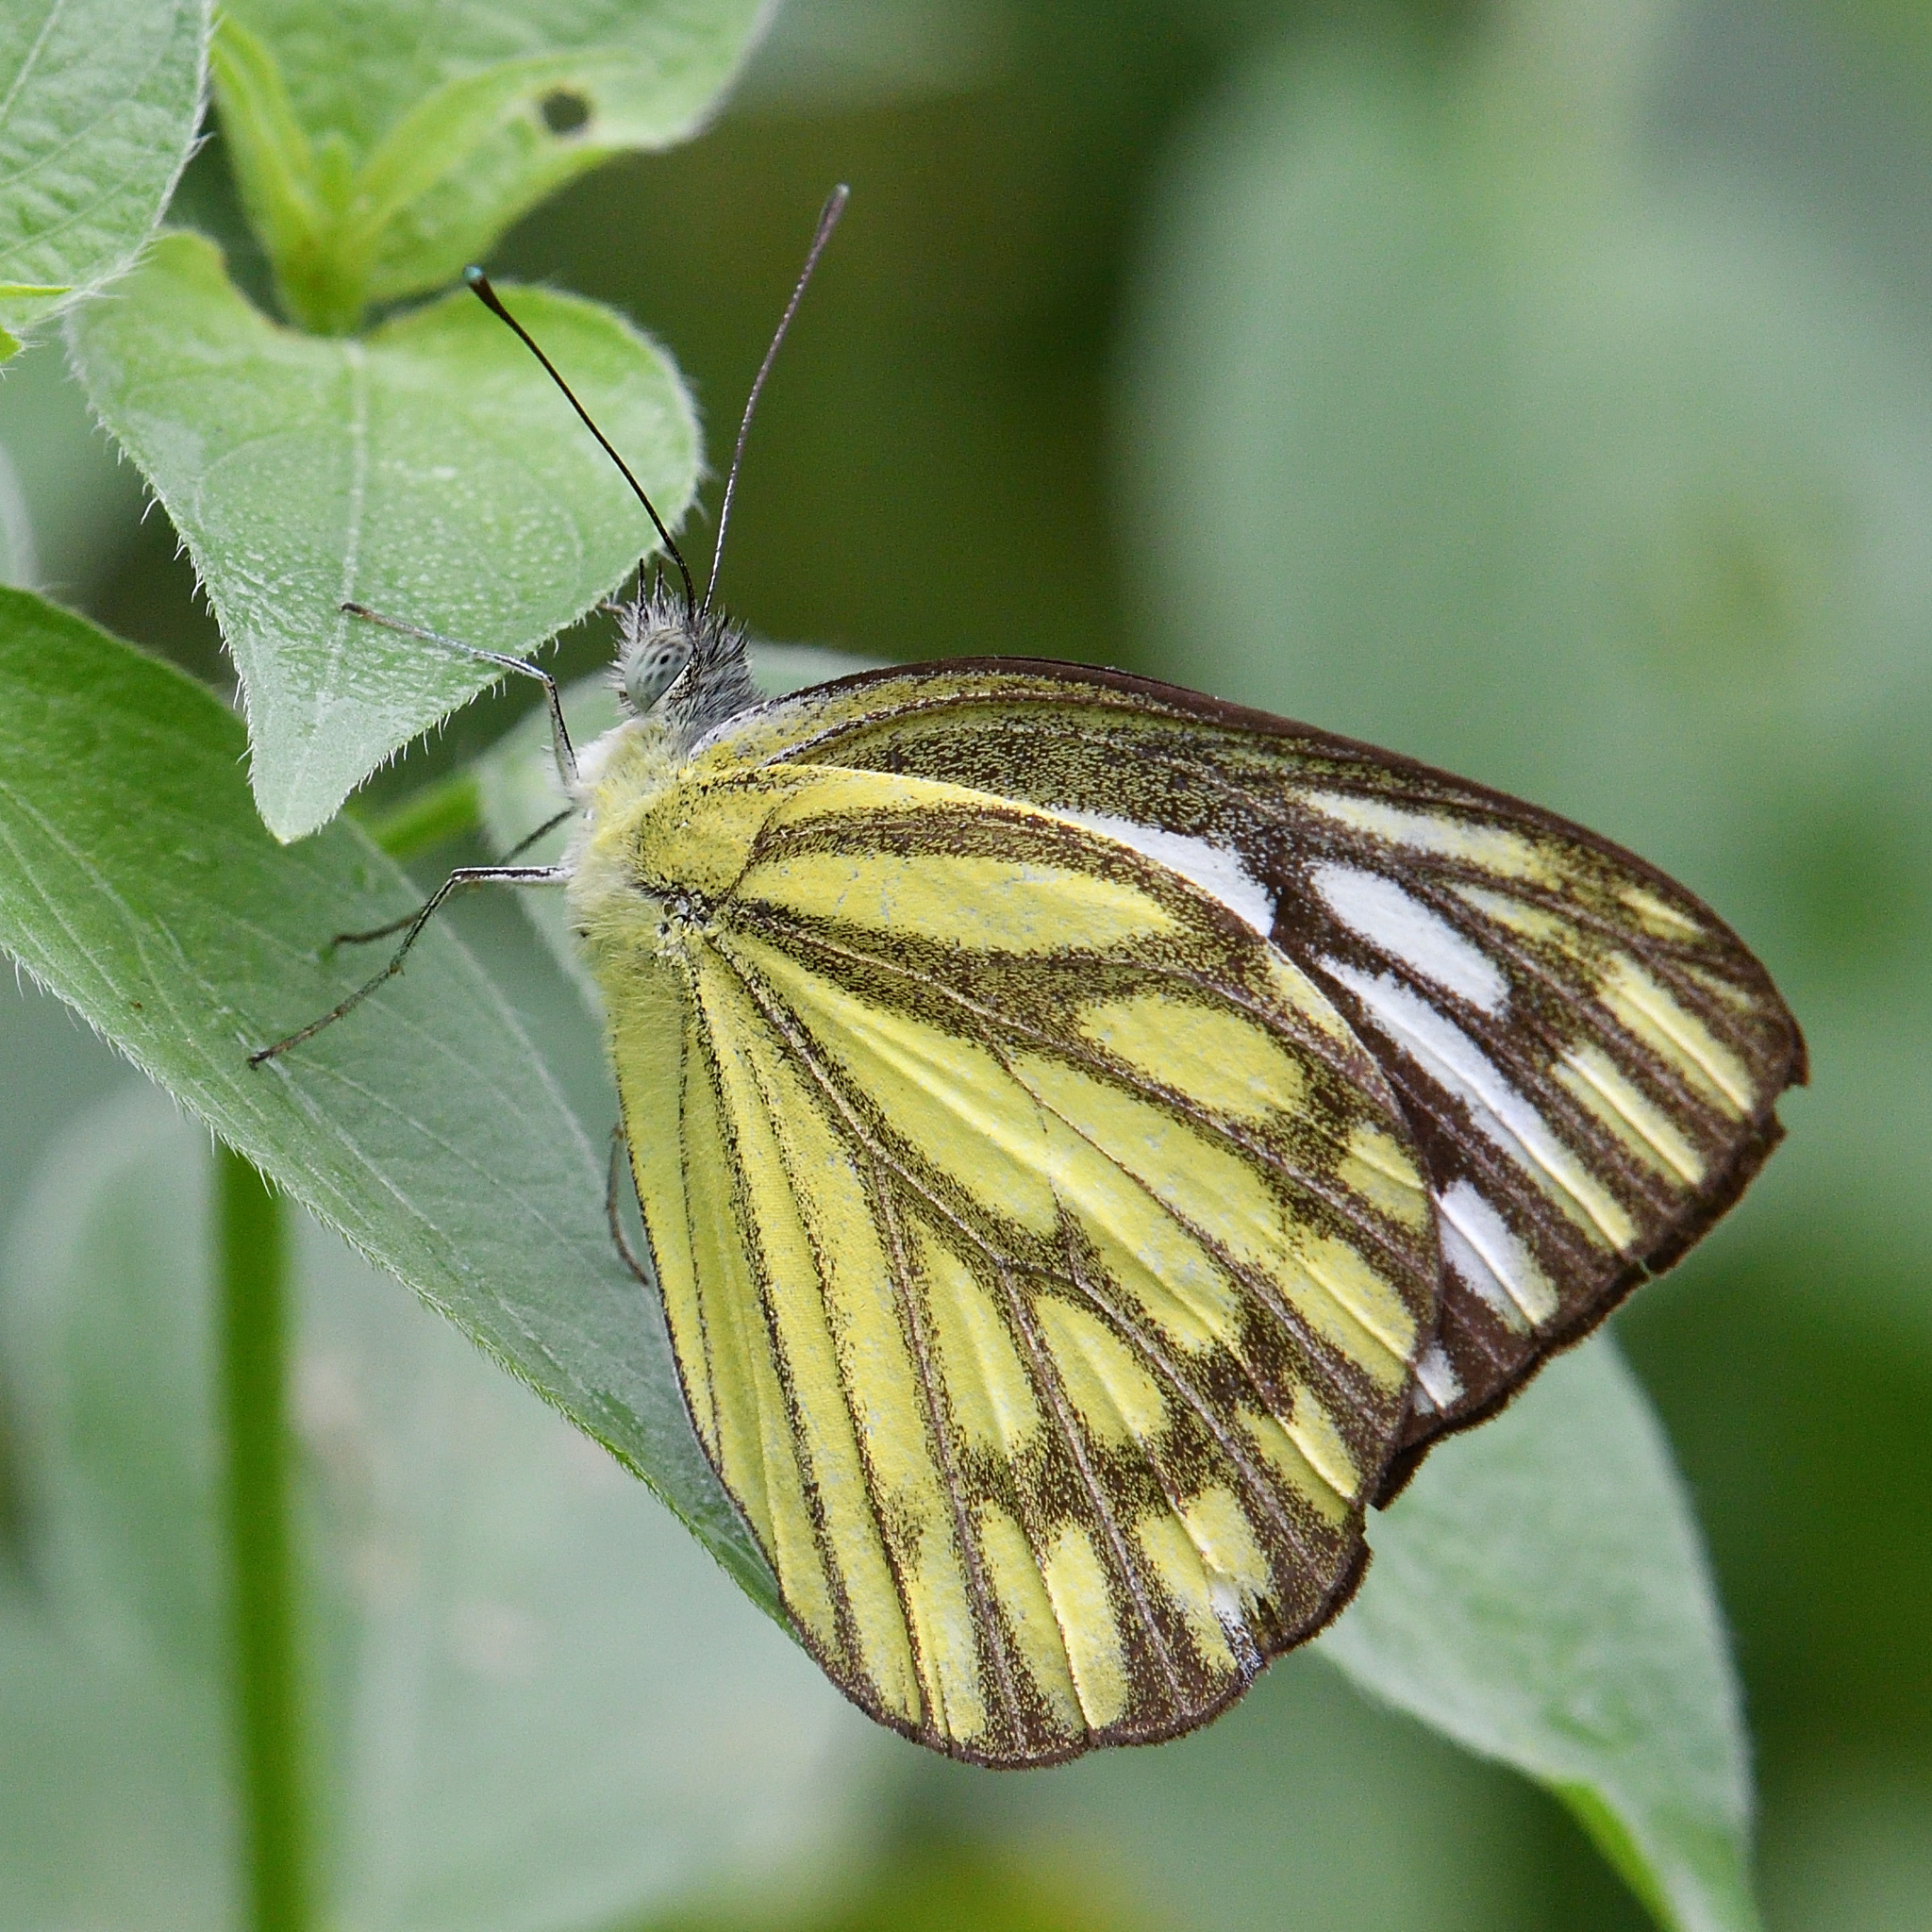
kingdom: Animalia
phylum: Arthropoda
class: Insecta
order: Lepidoptera
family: Pieridae
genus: Cepora
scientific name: Cepora nerissa
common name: Common gull
